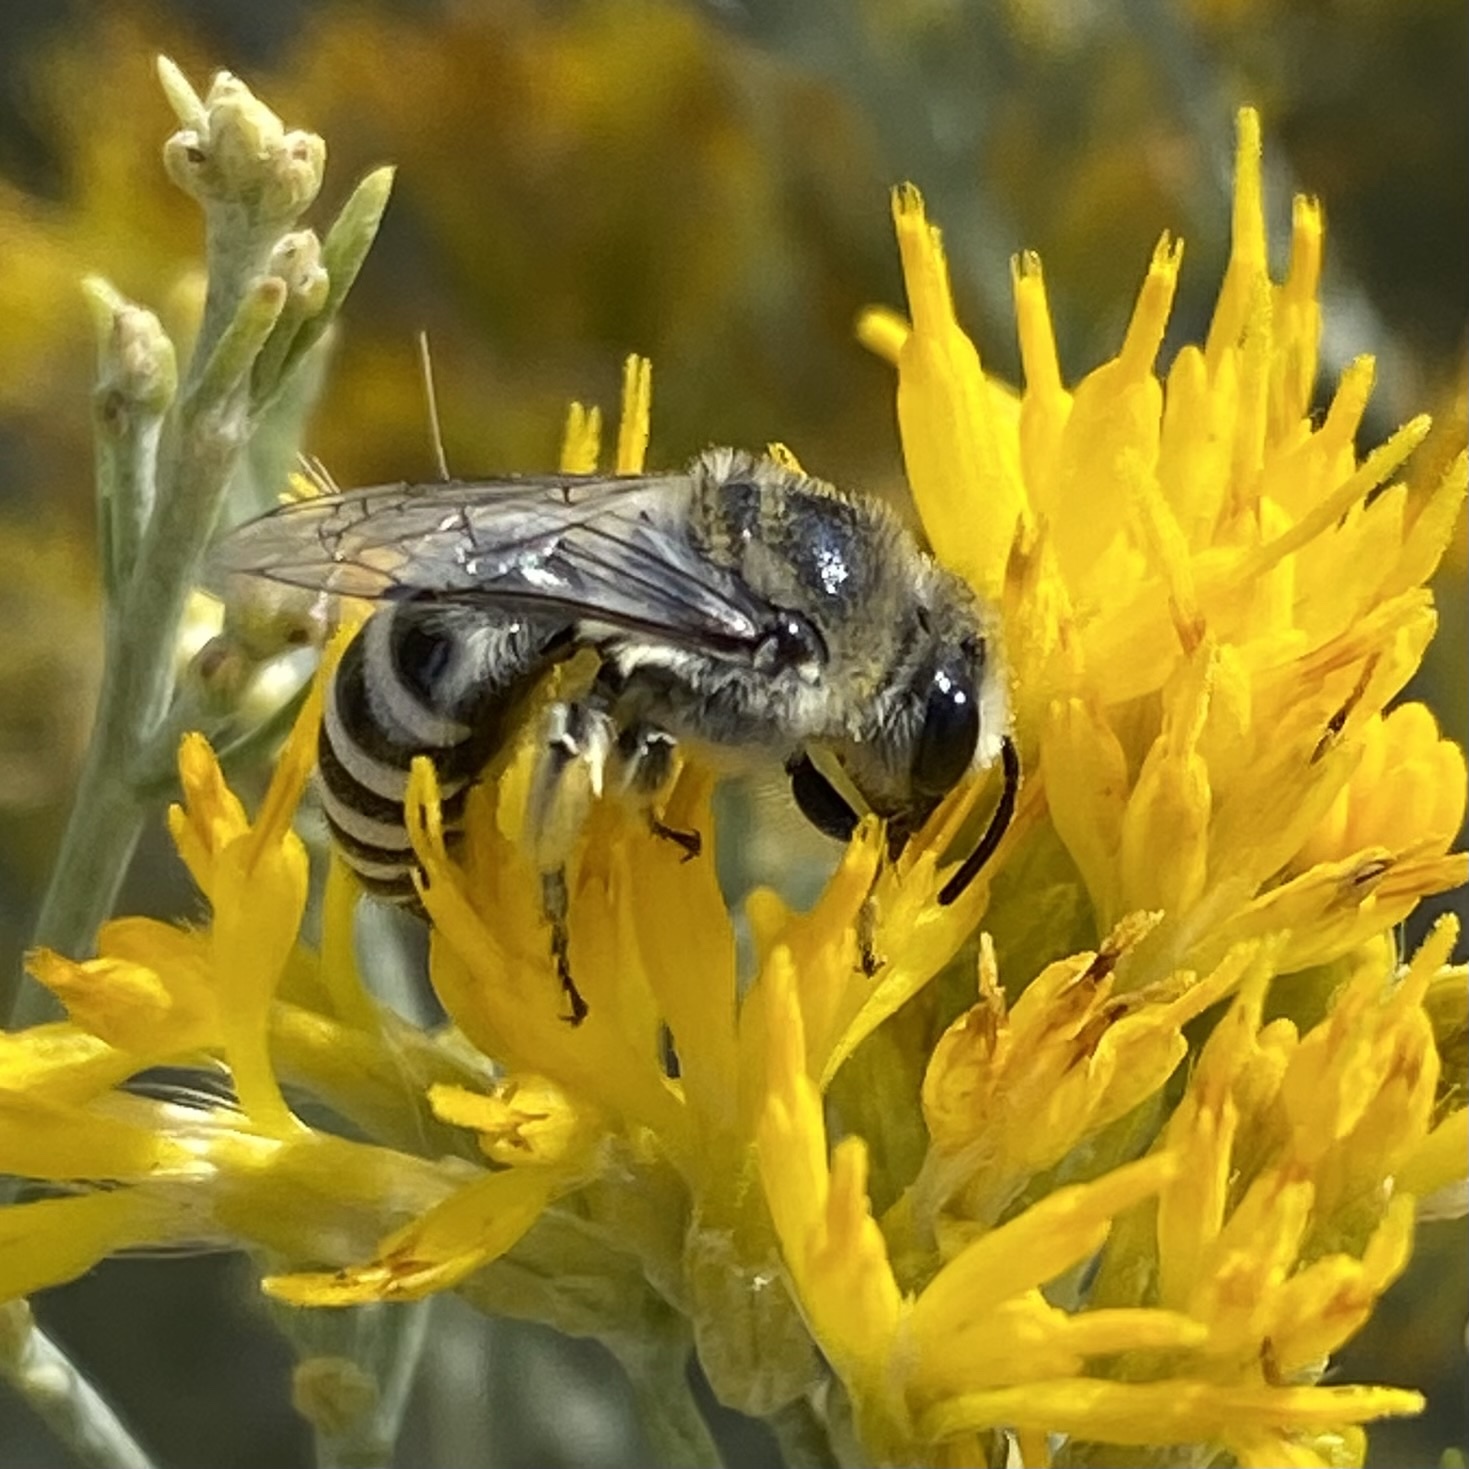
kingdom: Animalia
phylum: Arthropoda
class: Insecta
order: Hymenoptera
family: Colletidae
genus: Colletes
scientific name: Colletes
